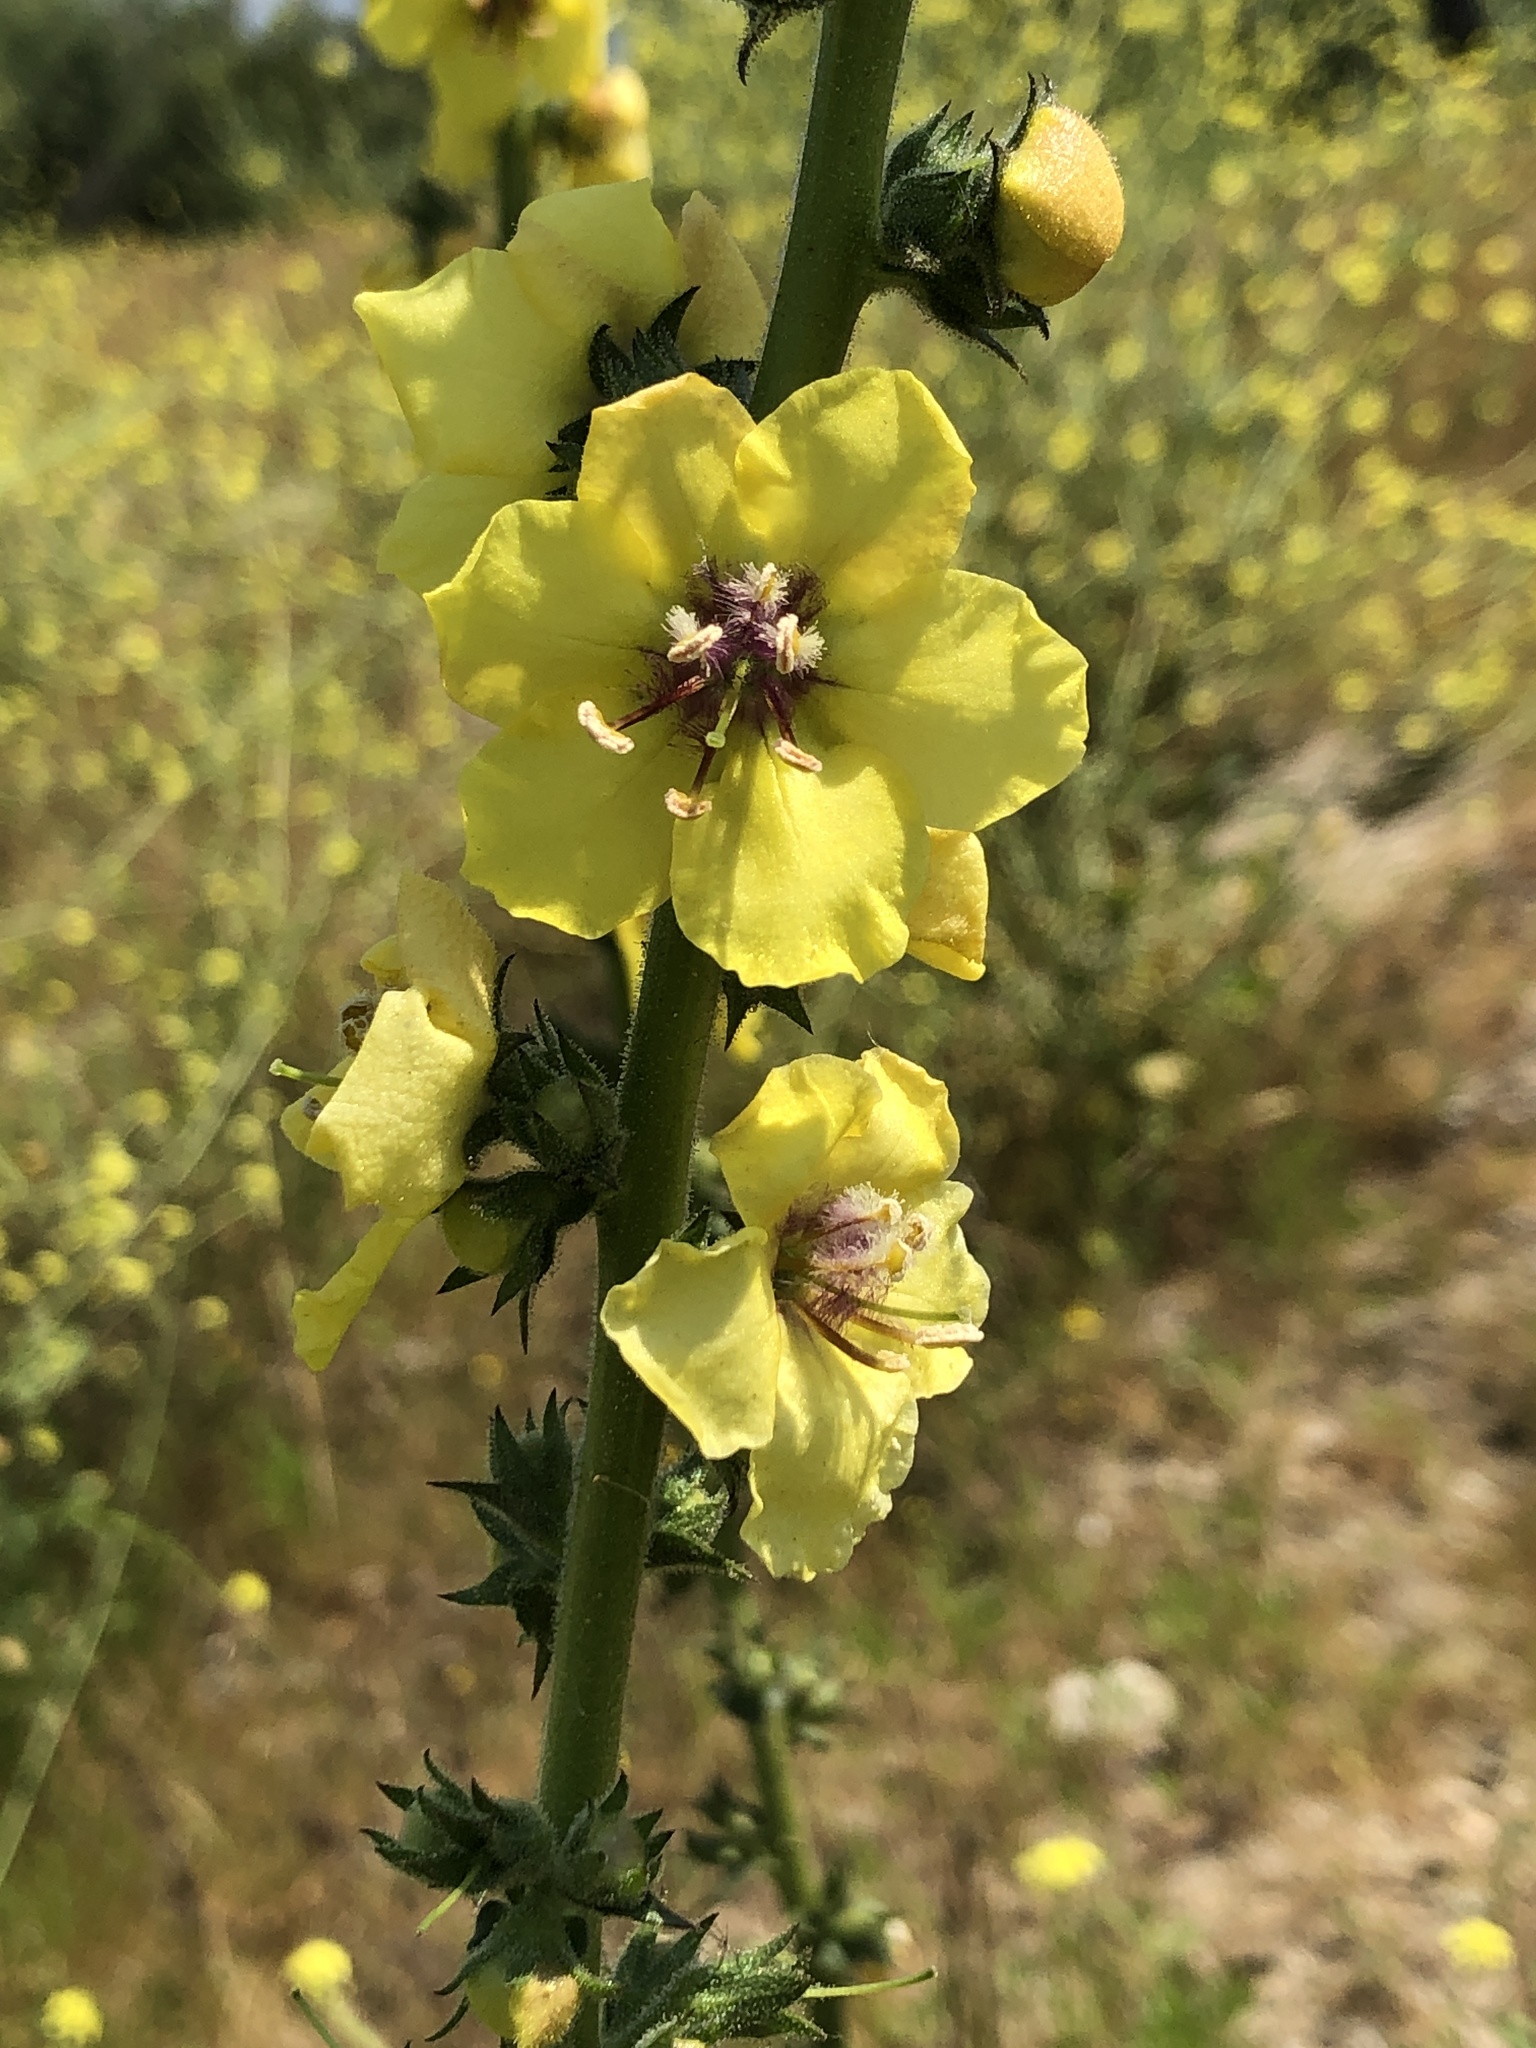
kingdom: Plantae
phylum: Tracheophyta
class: Magnoliopsida
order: Lamiales
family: Scrophulariaceae
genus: Verbascum
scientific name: Verbascum virgatum
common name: Twiggy mullein
